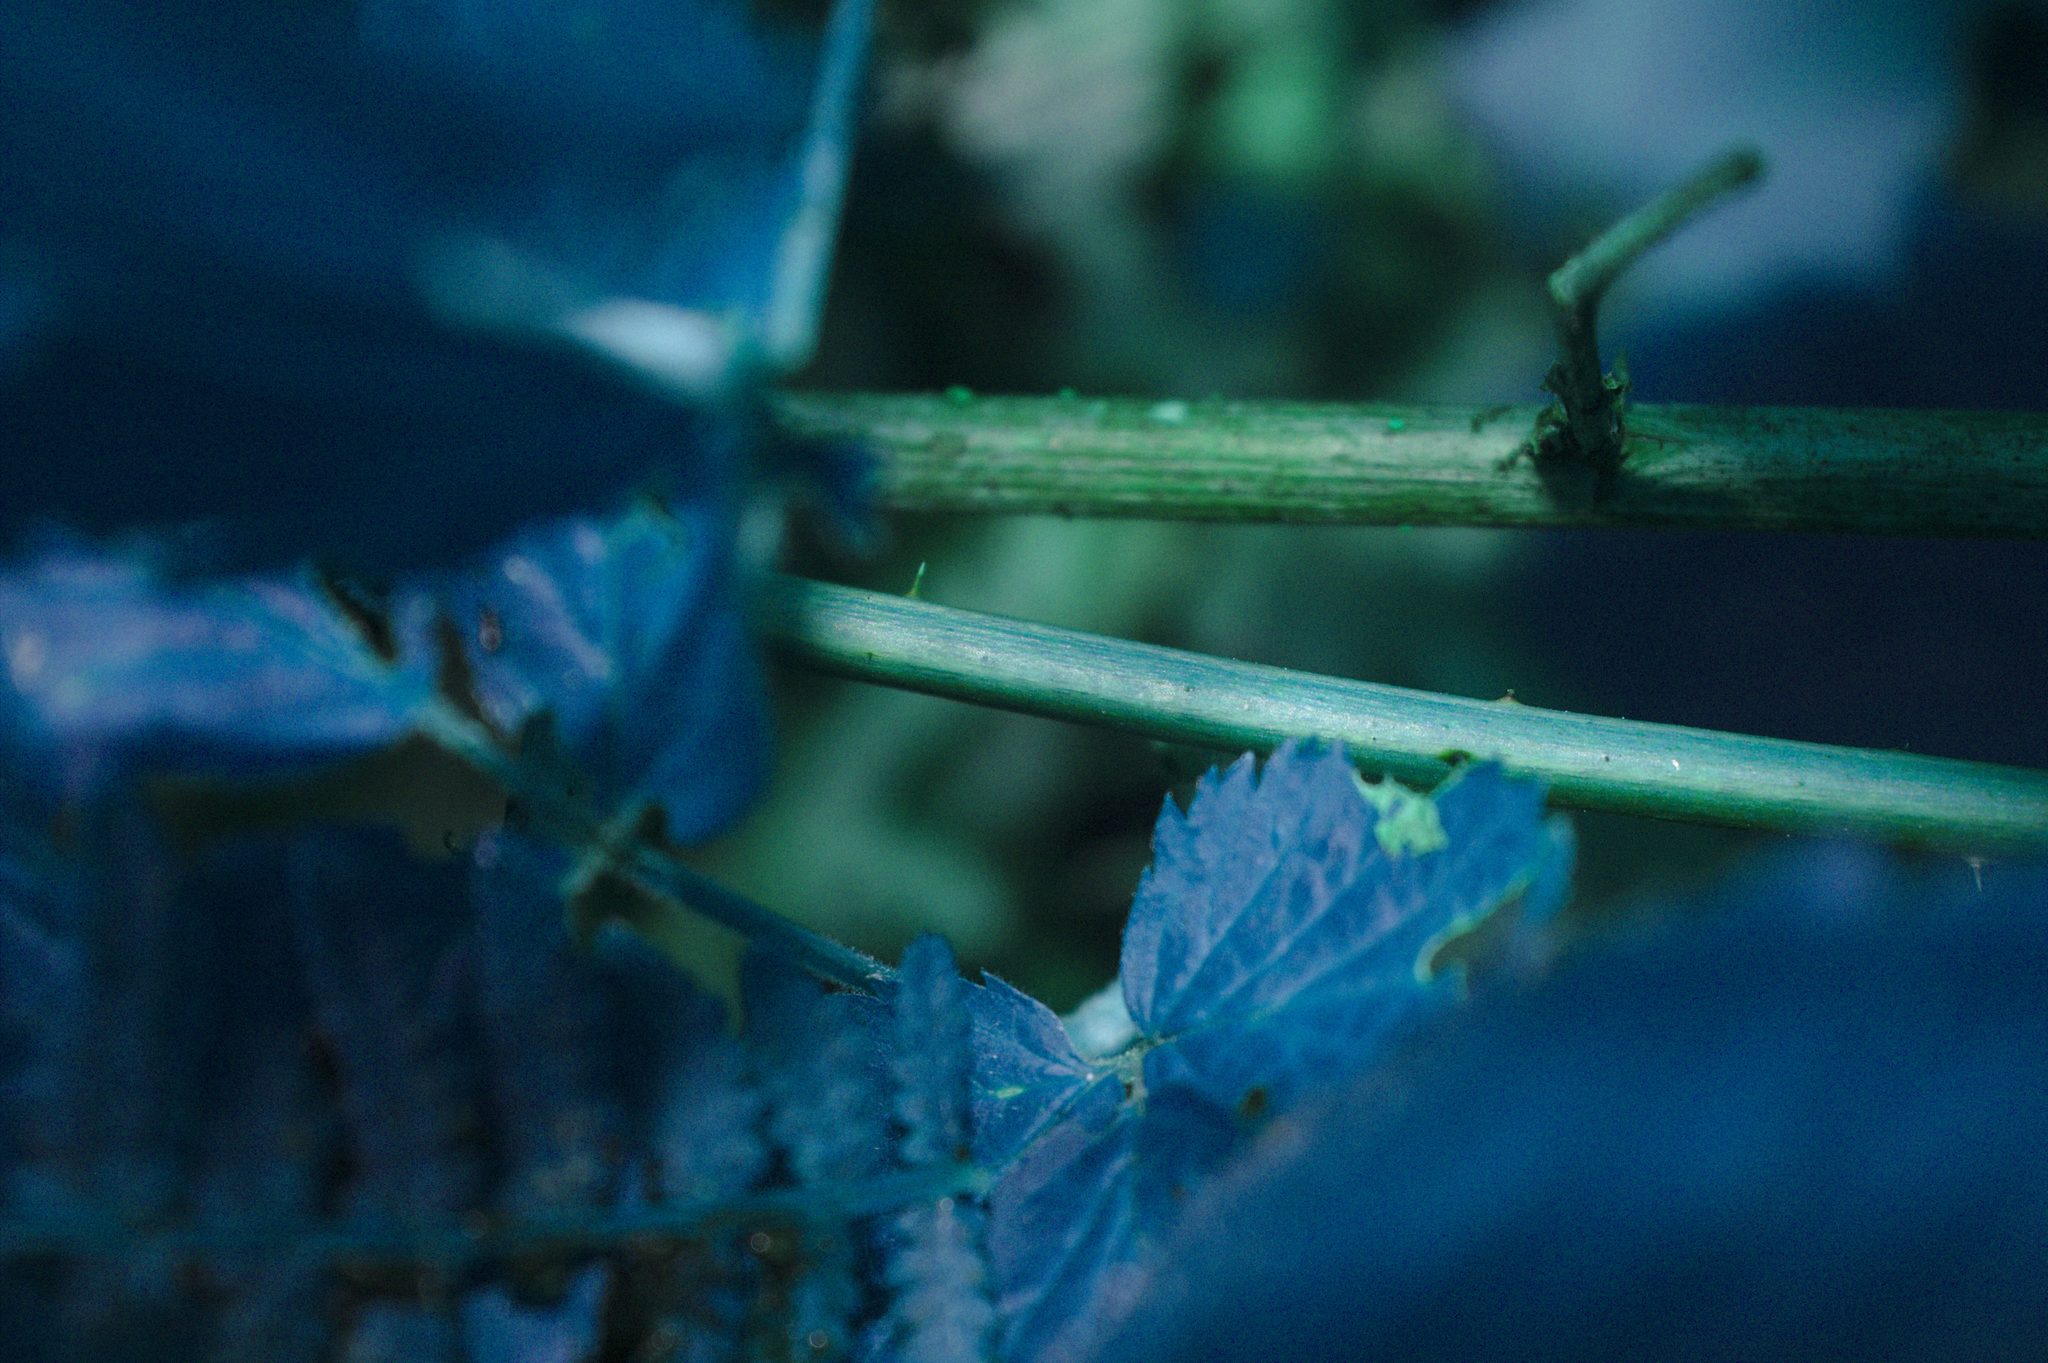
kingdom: Plantae
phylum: Tracheophyta
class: Magnoliopsida
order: Rosales
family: Rosaceae
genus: Rubus
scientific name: Rubus pensilvanicus
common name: Pennsylvania blackberry
